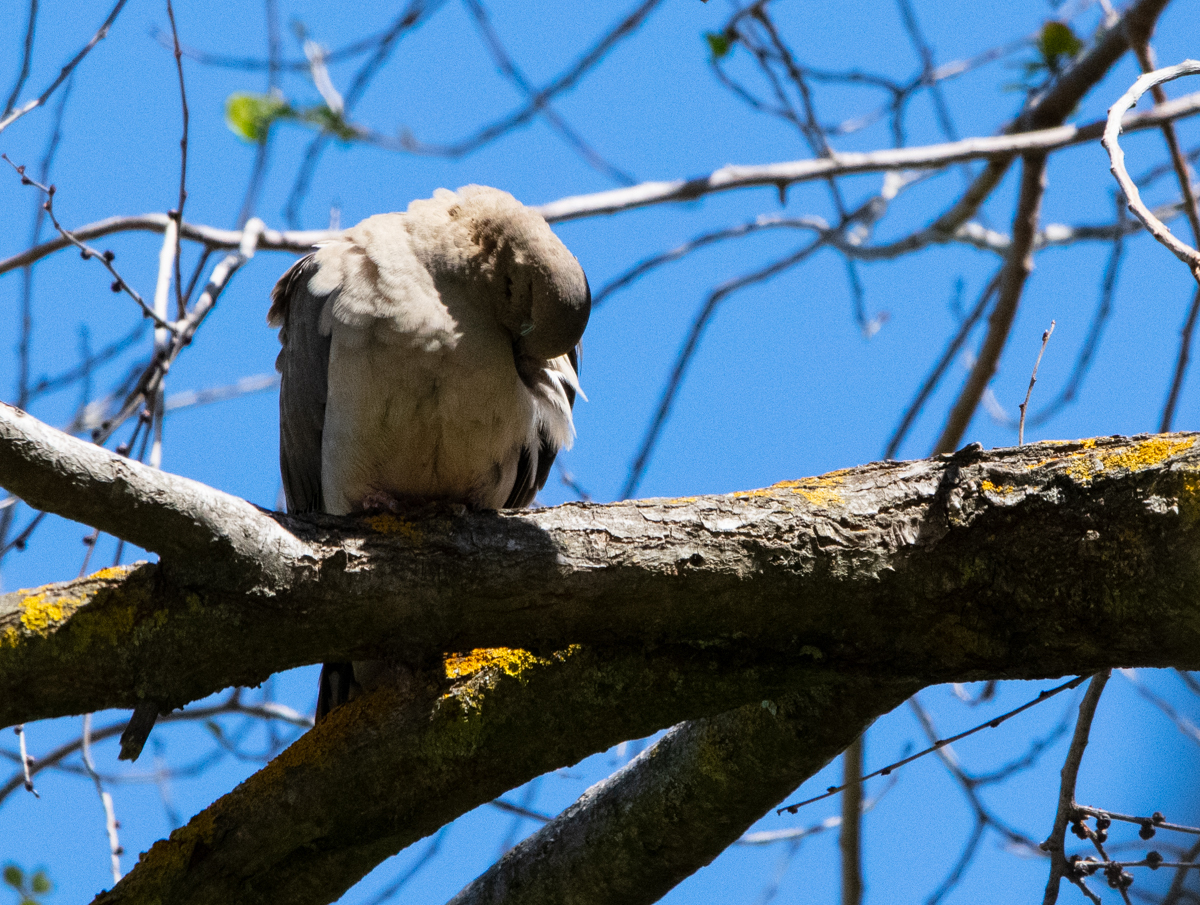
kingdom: Animalia
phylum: Chordata
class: Aves
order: Columbiformes
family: Columbidae
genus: Zenaida
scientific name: Zenaida macroura
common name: Mourning dove
